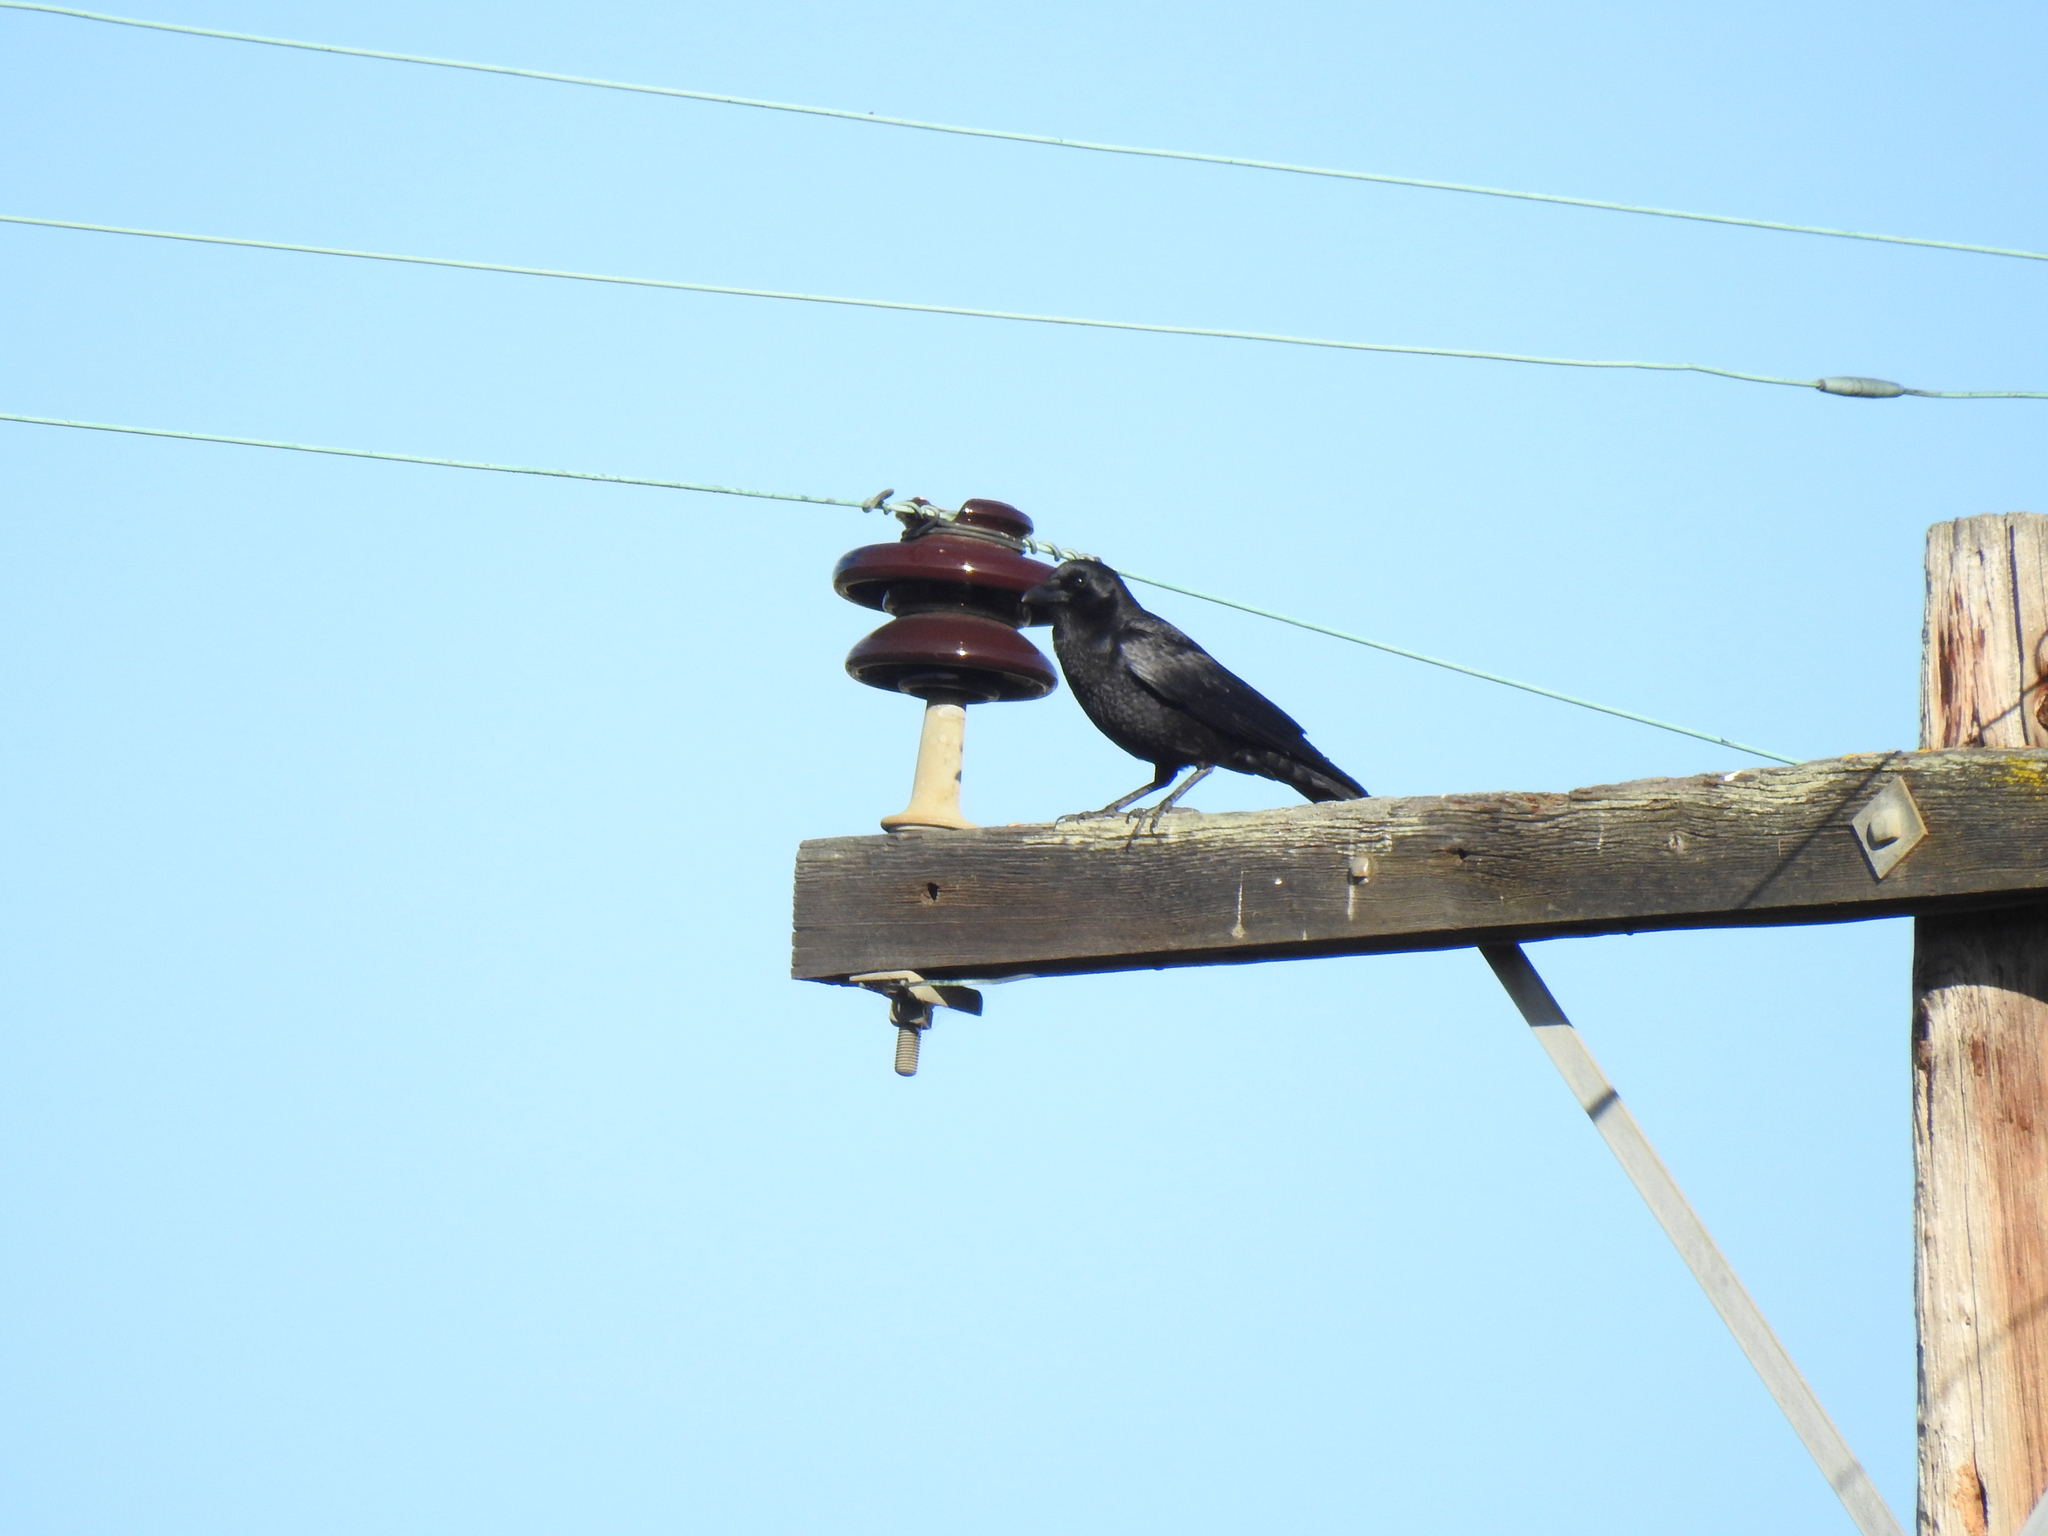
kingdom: Animalia
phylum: Chordata
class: Aves
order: Passeriformes
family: Corvidae
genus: Corvus
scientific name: Corvus brachyrhynchos
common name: American crow
